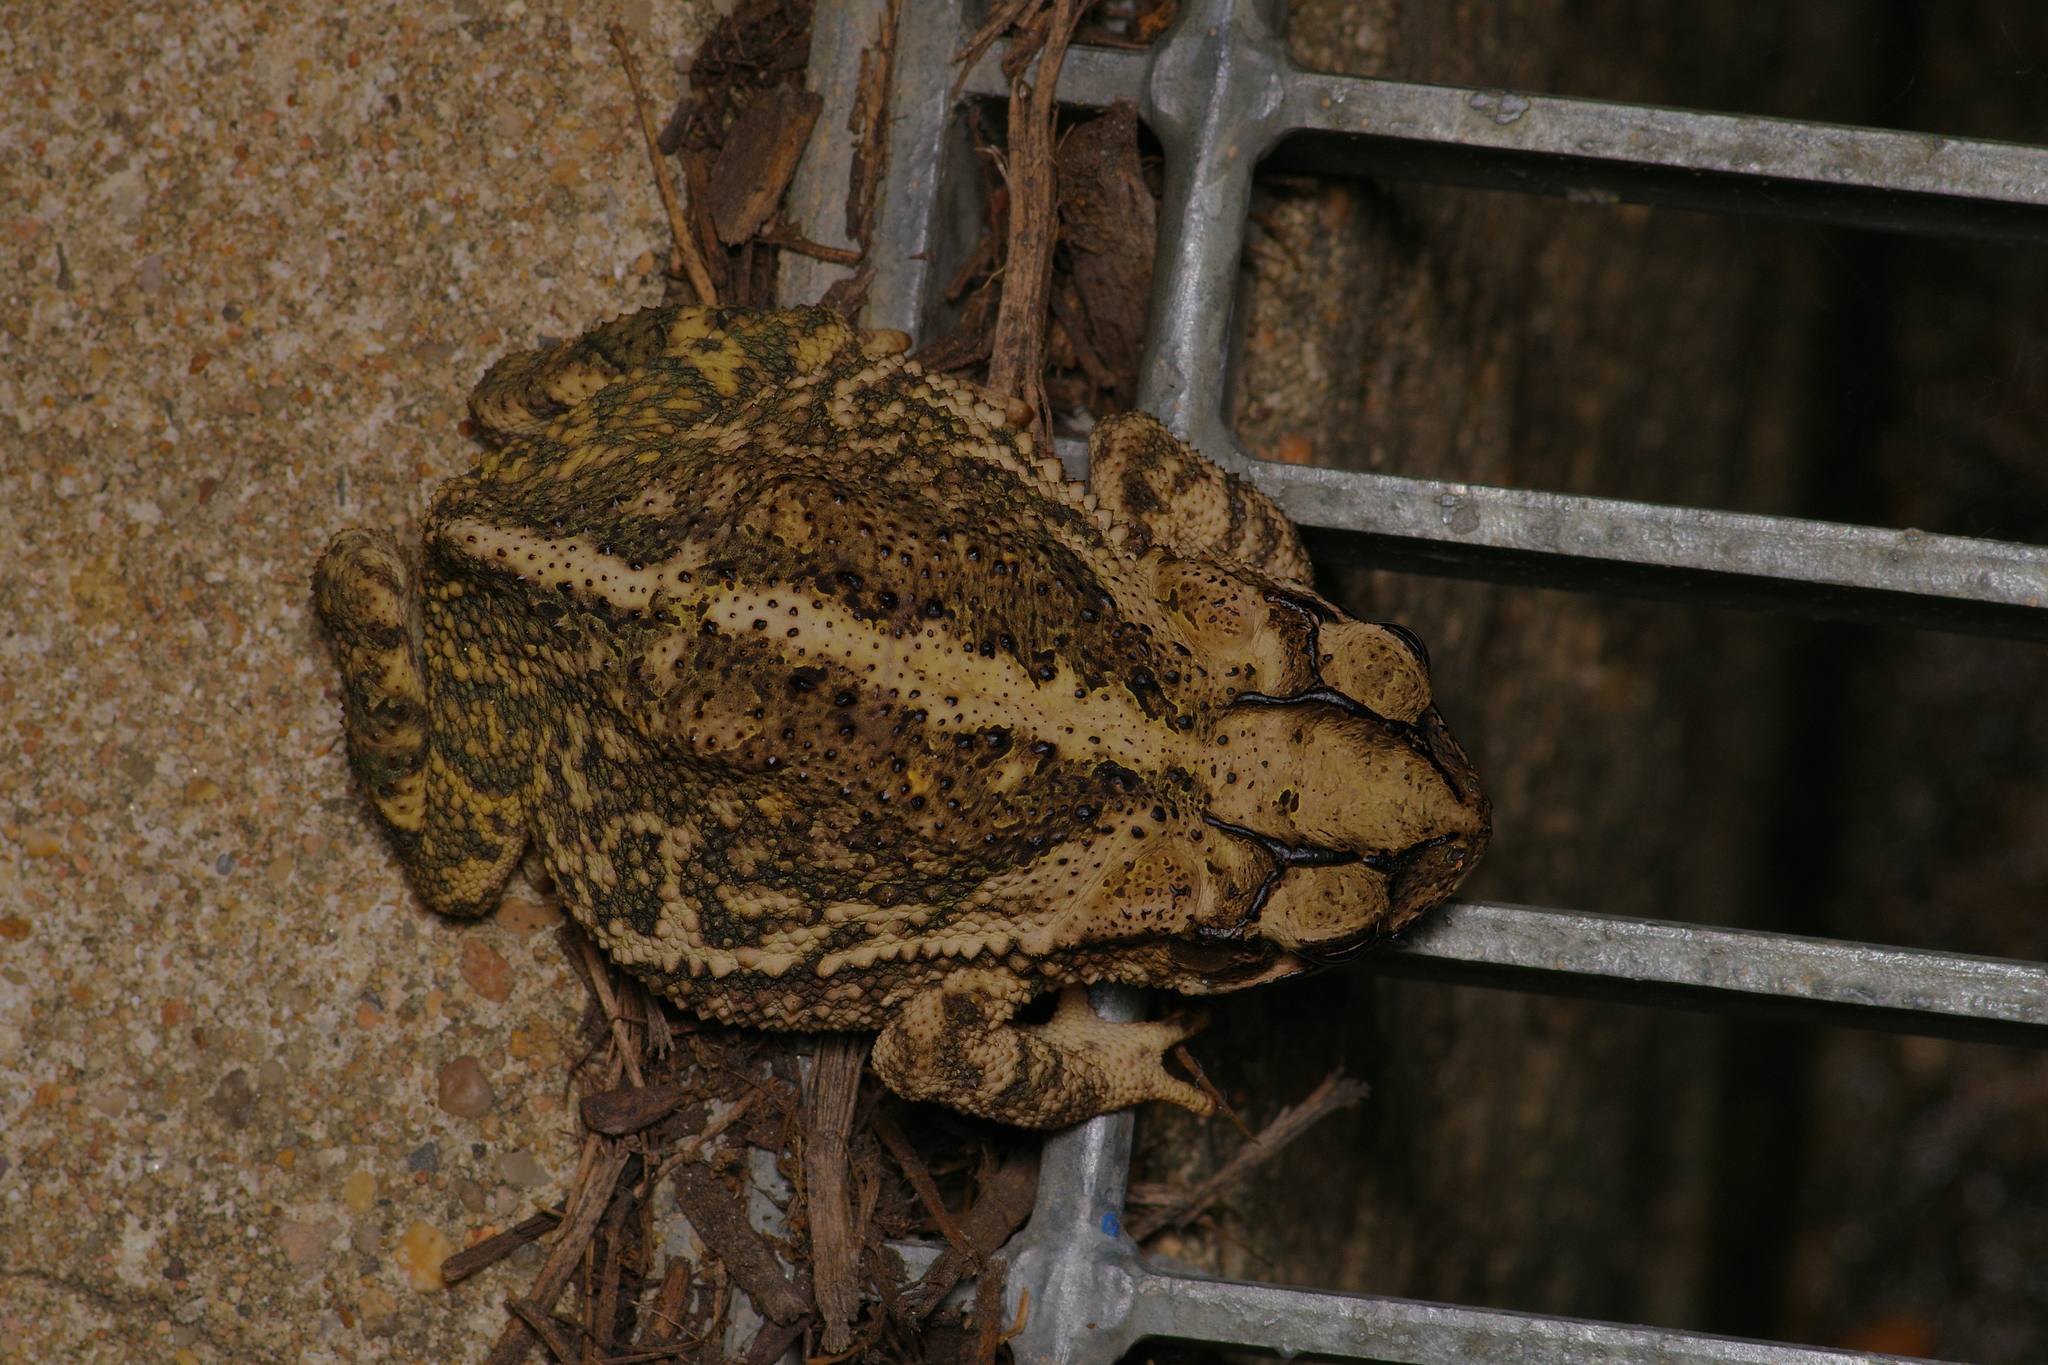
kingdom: Animalia
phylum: Chordata
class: Amphibia
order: Anura
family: Bufonidae
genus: Incilius
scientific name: Incilius nebulifer
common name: Gulf coast toad
